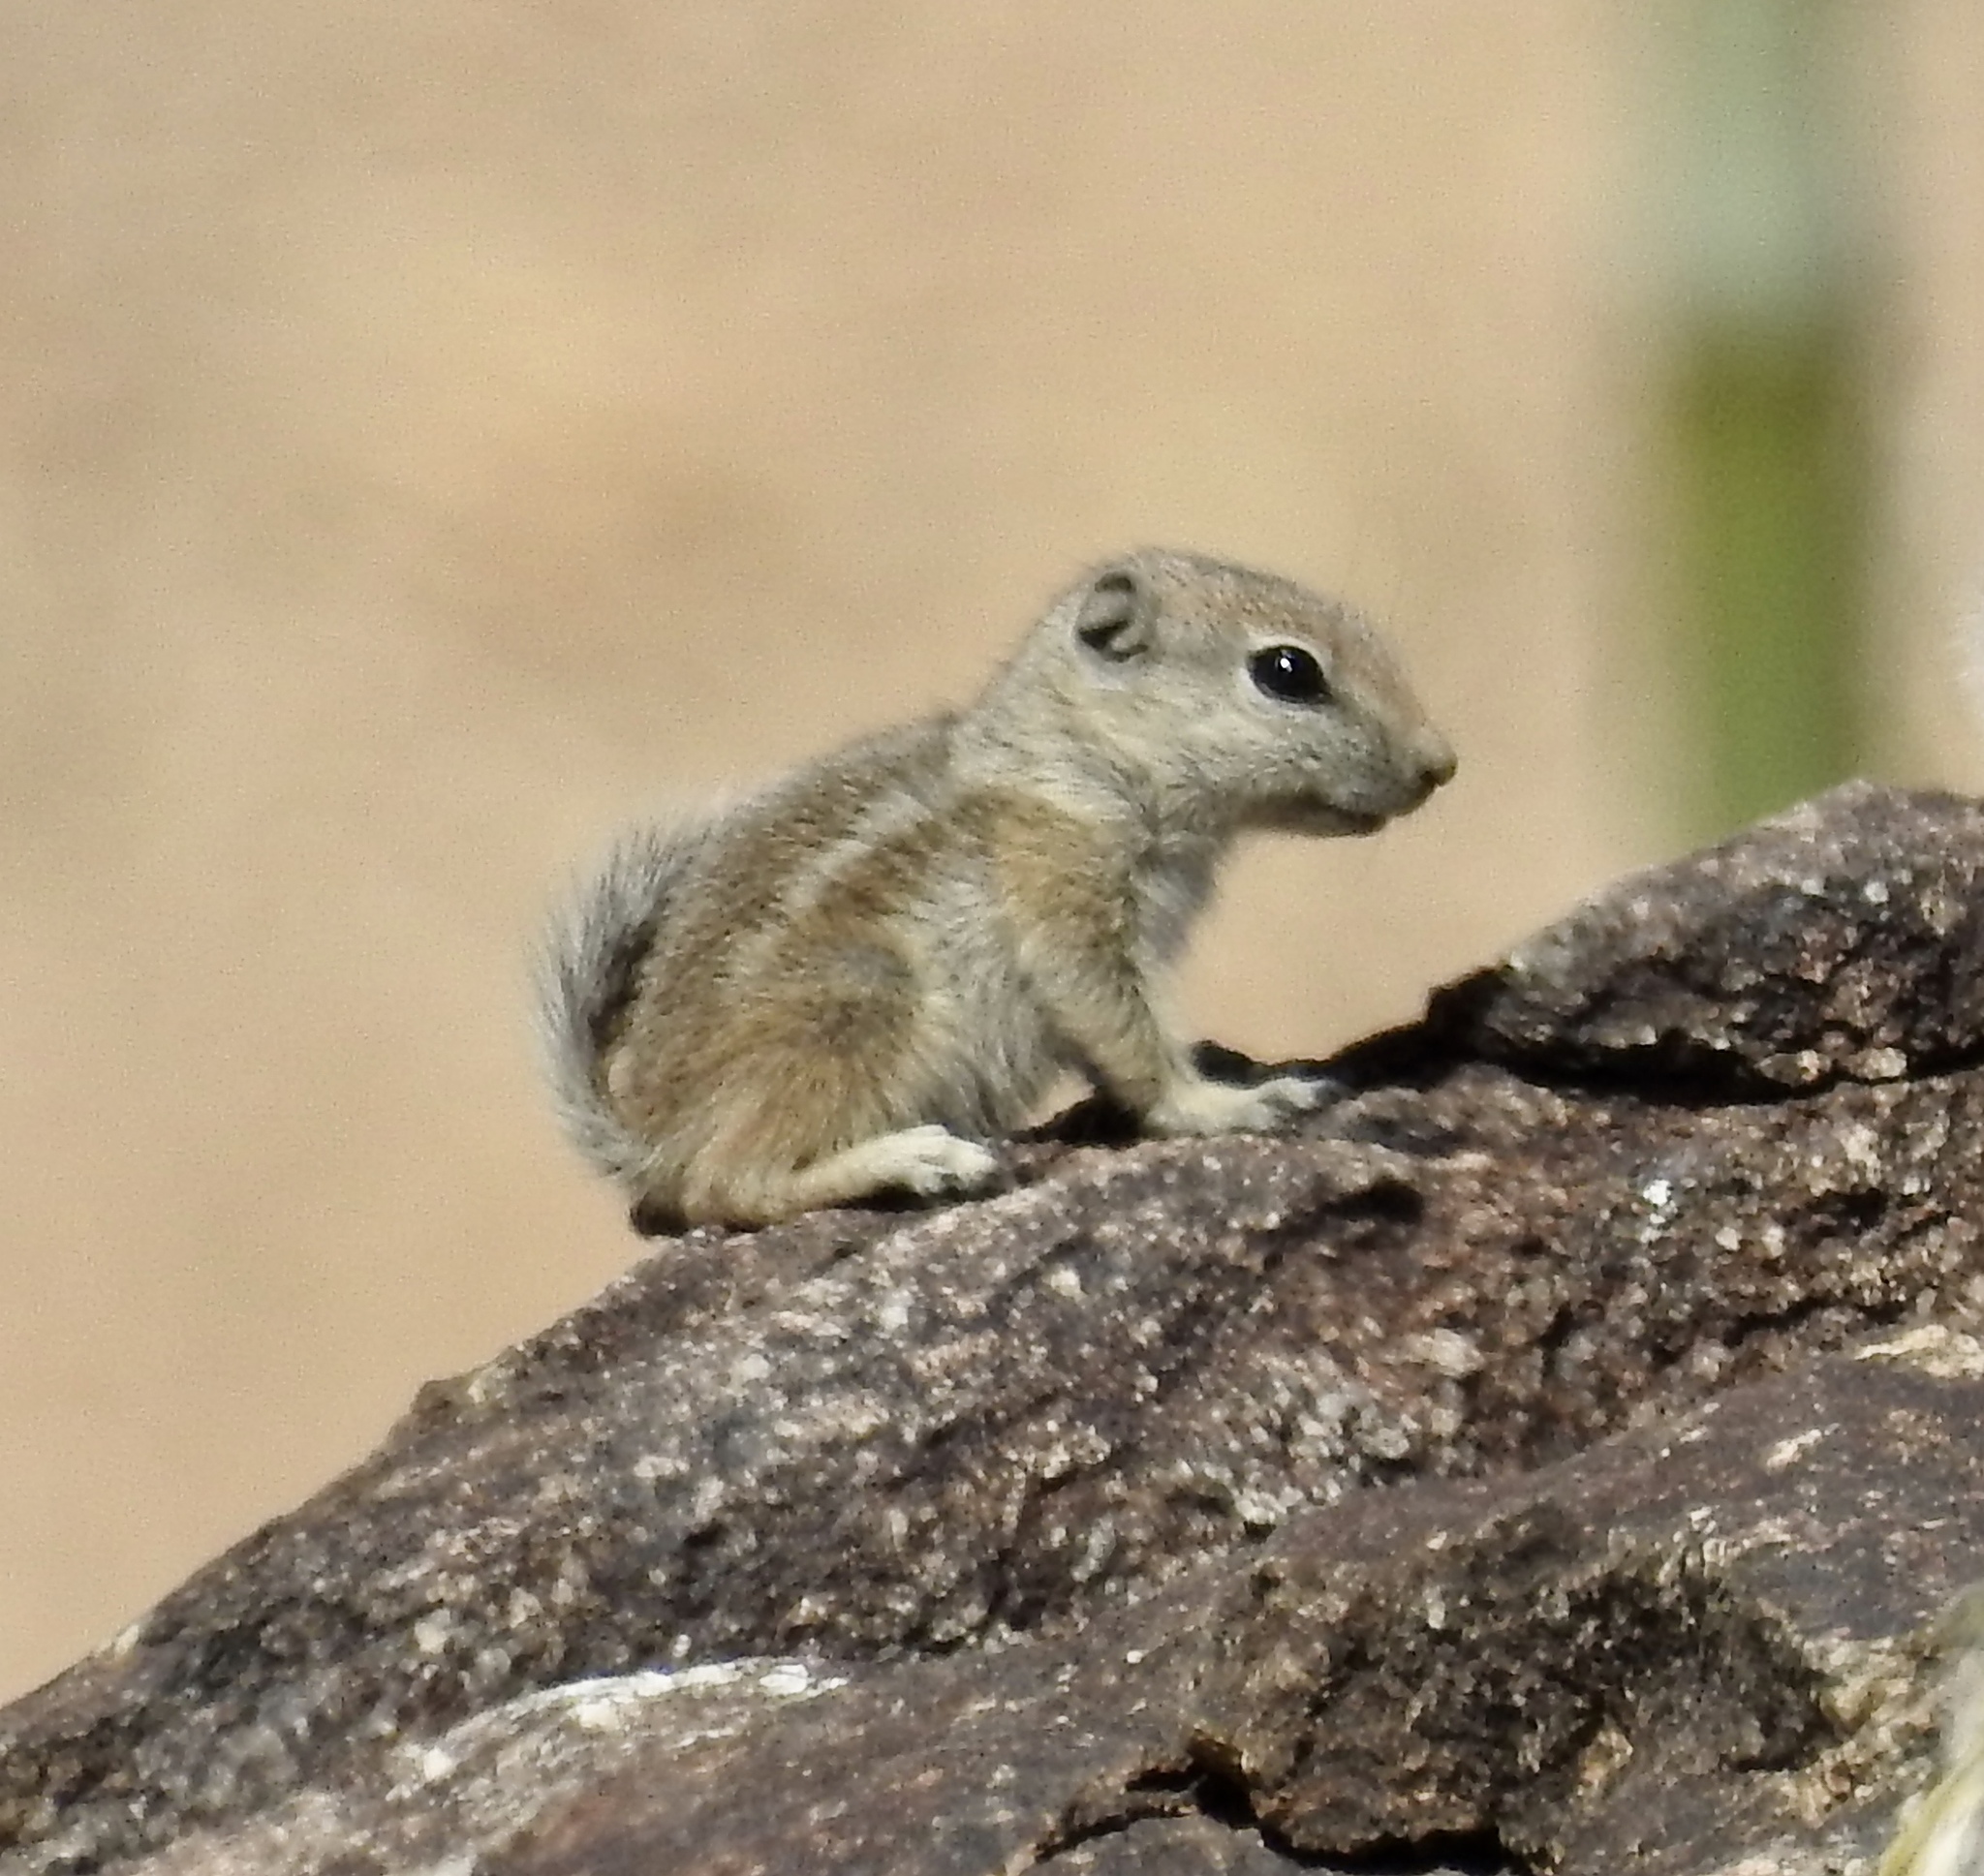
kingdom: Animalia
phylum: Chordata
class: Mammalia
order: Rodentia
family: Sciuridae
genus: Ammospermophilus
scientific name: Ammospermophilus leucurus
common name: White-tailed antelope squirrel
